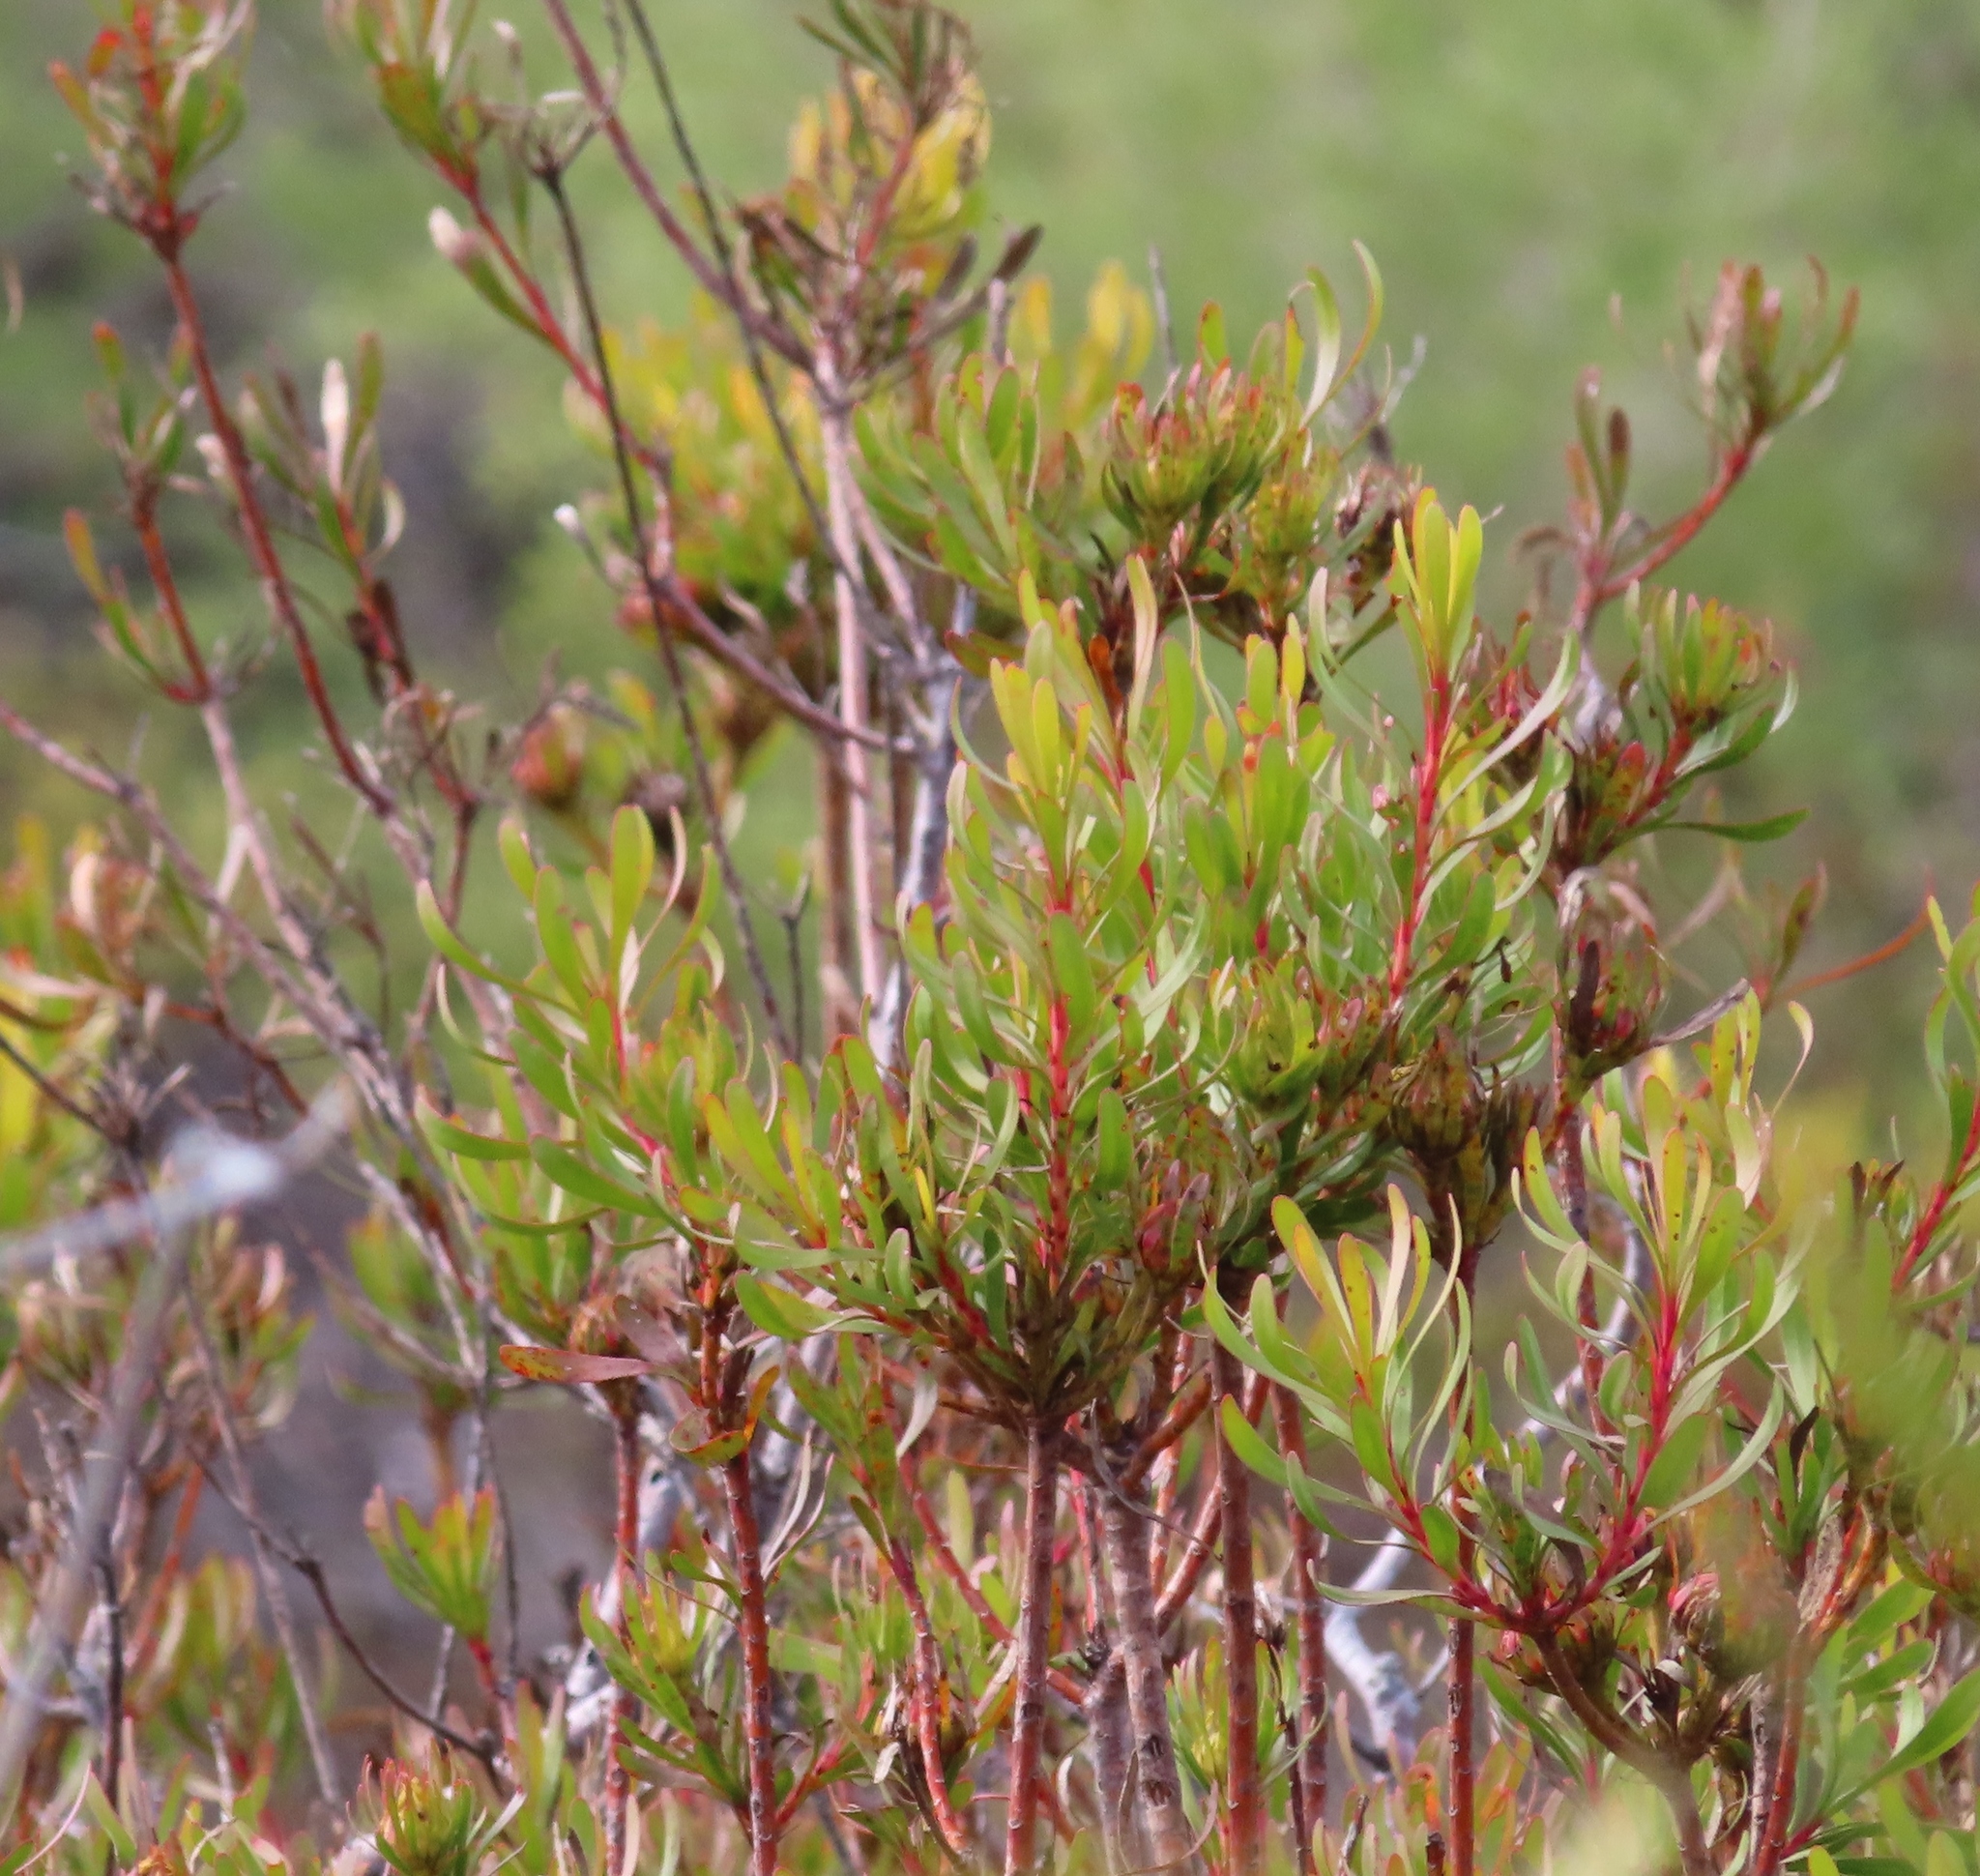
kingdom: Plantae
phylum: Tracheophyta
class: Magnoliopsida
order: Proteales
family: Proteaceae
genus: Aulax
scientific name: Aulax umbellata
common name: Broad-leaf featherbush
